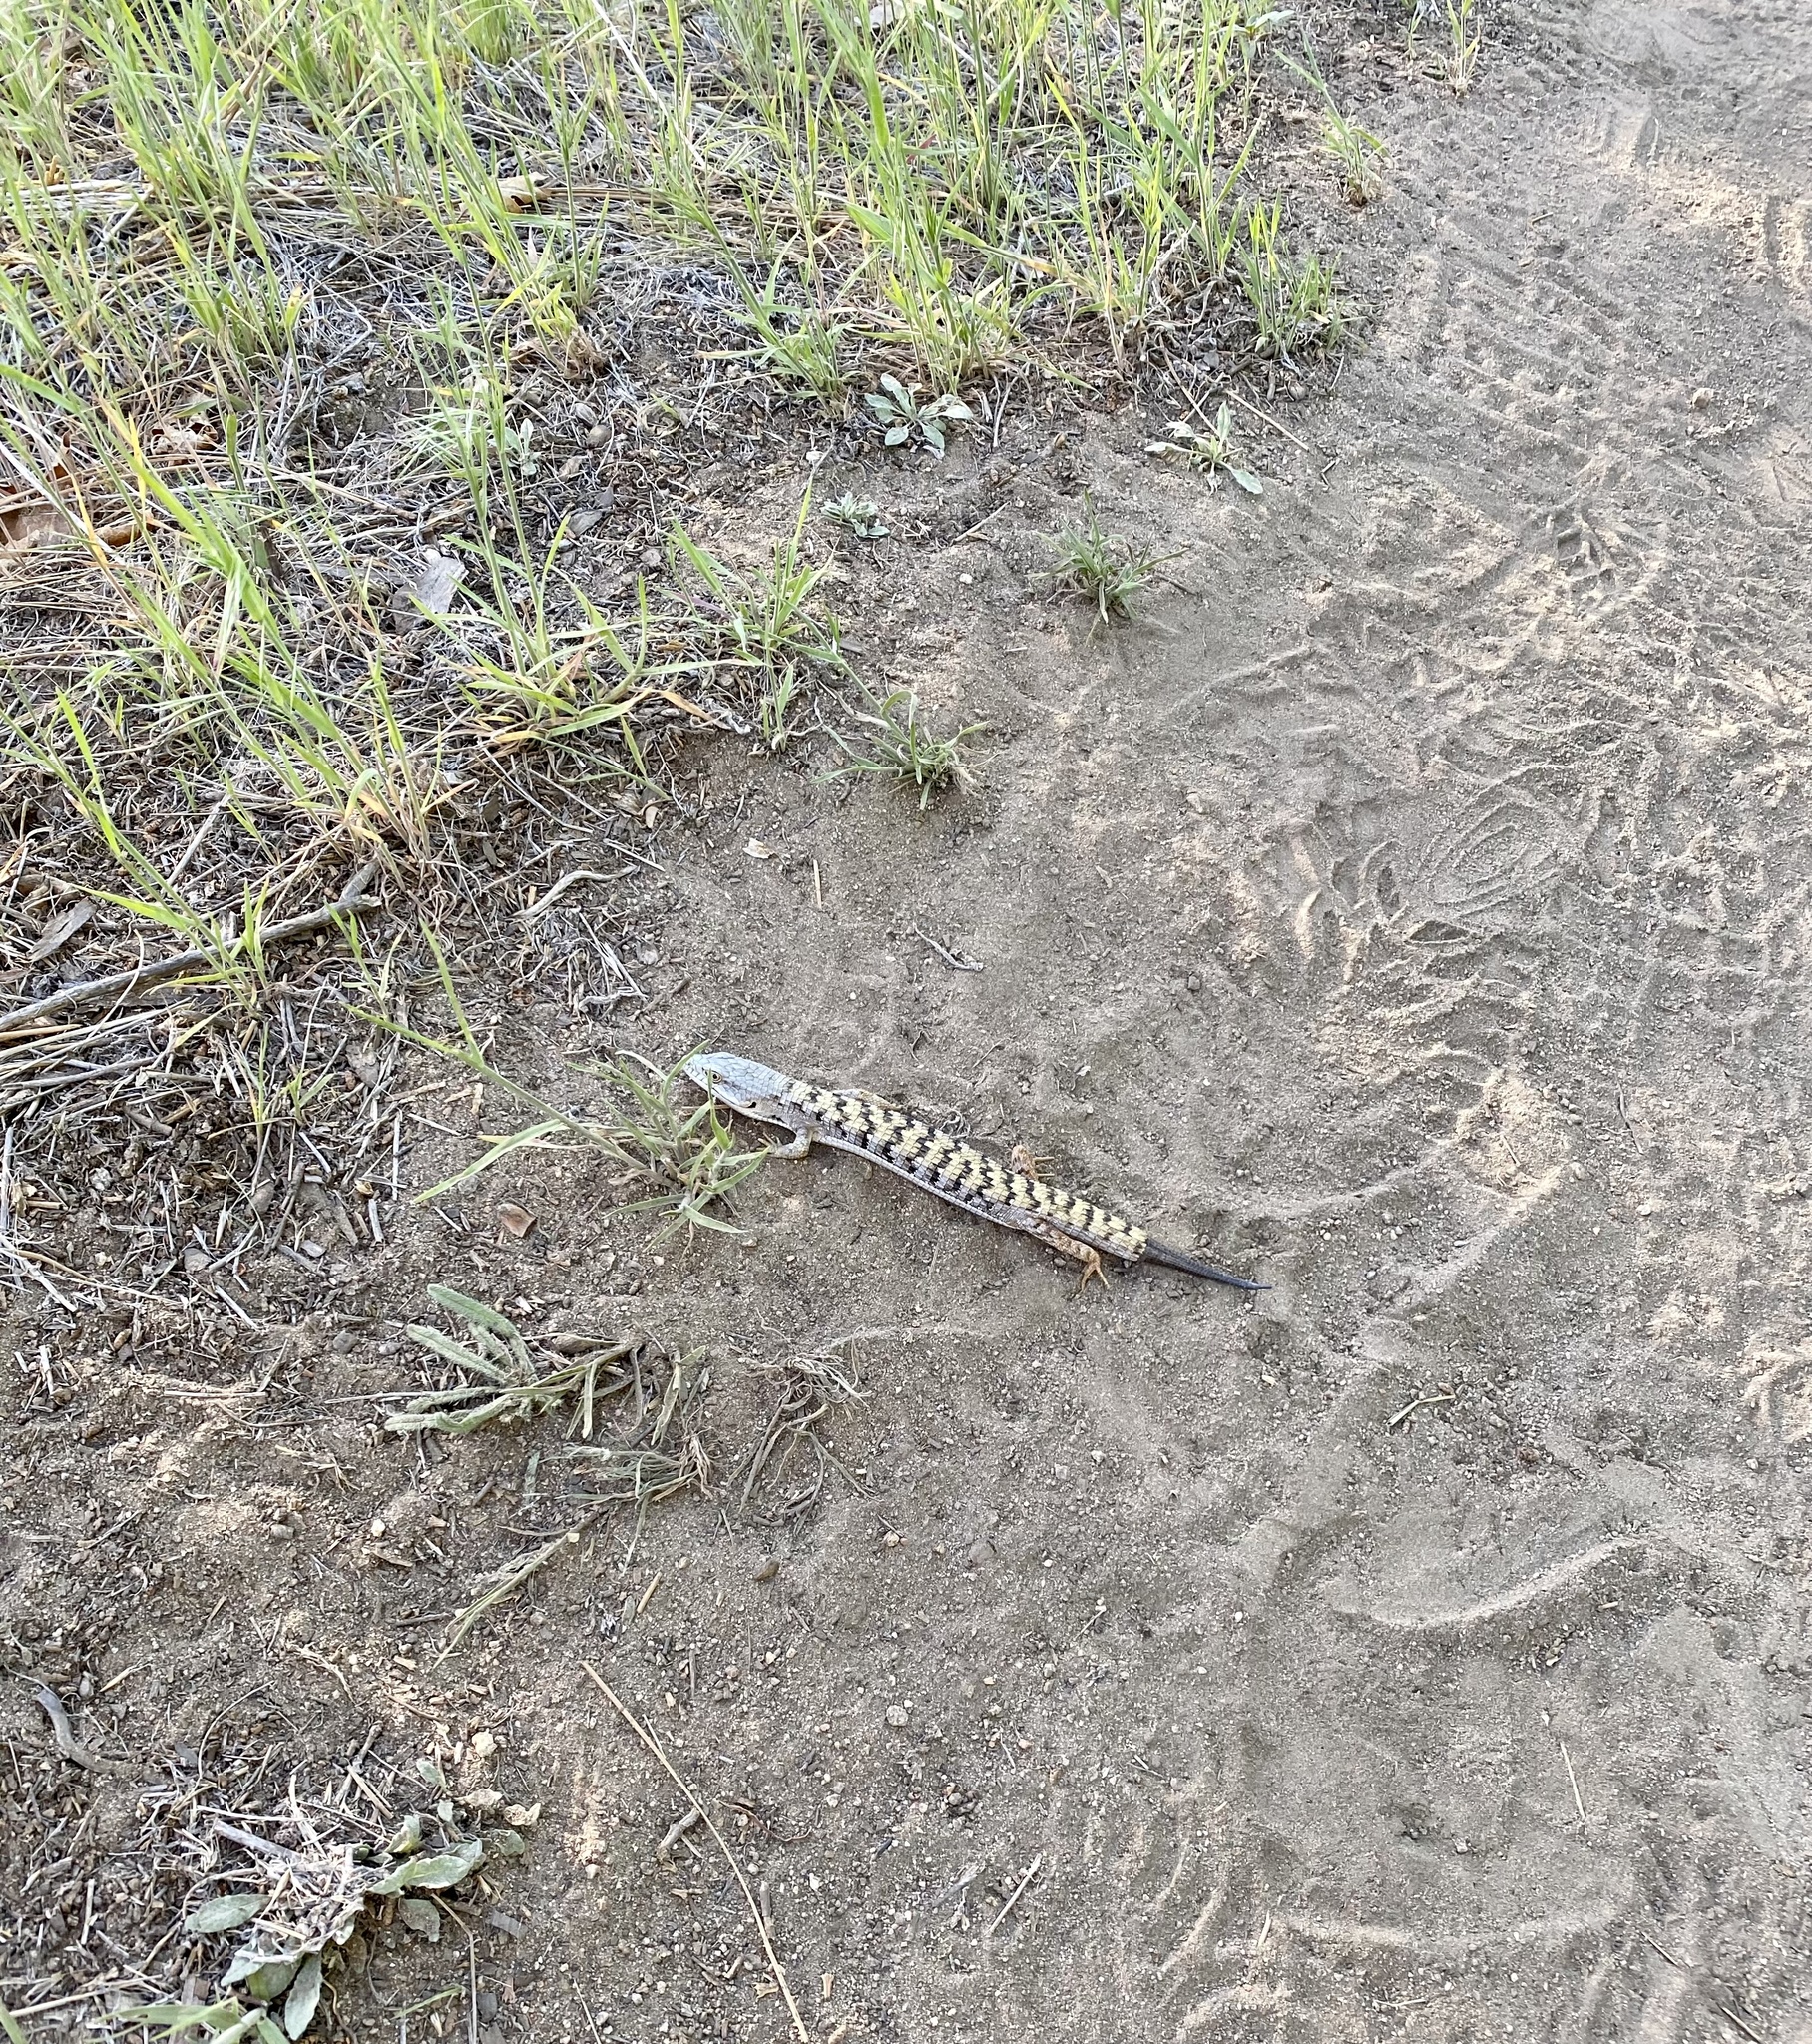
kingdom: Animalia
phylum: Chordata
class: Squamata
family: Anguidae
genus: Elgaria
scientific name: Elgaria multicarinata
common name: Southern alligator lizard
